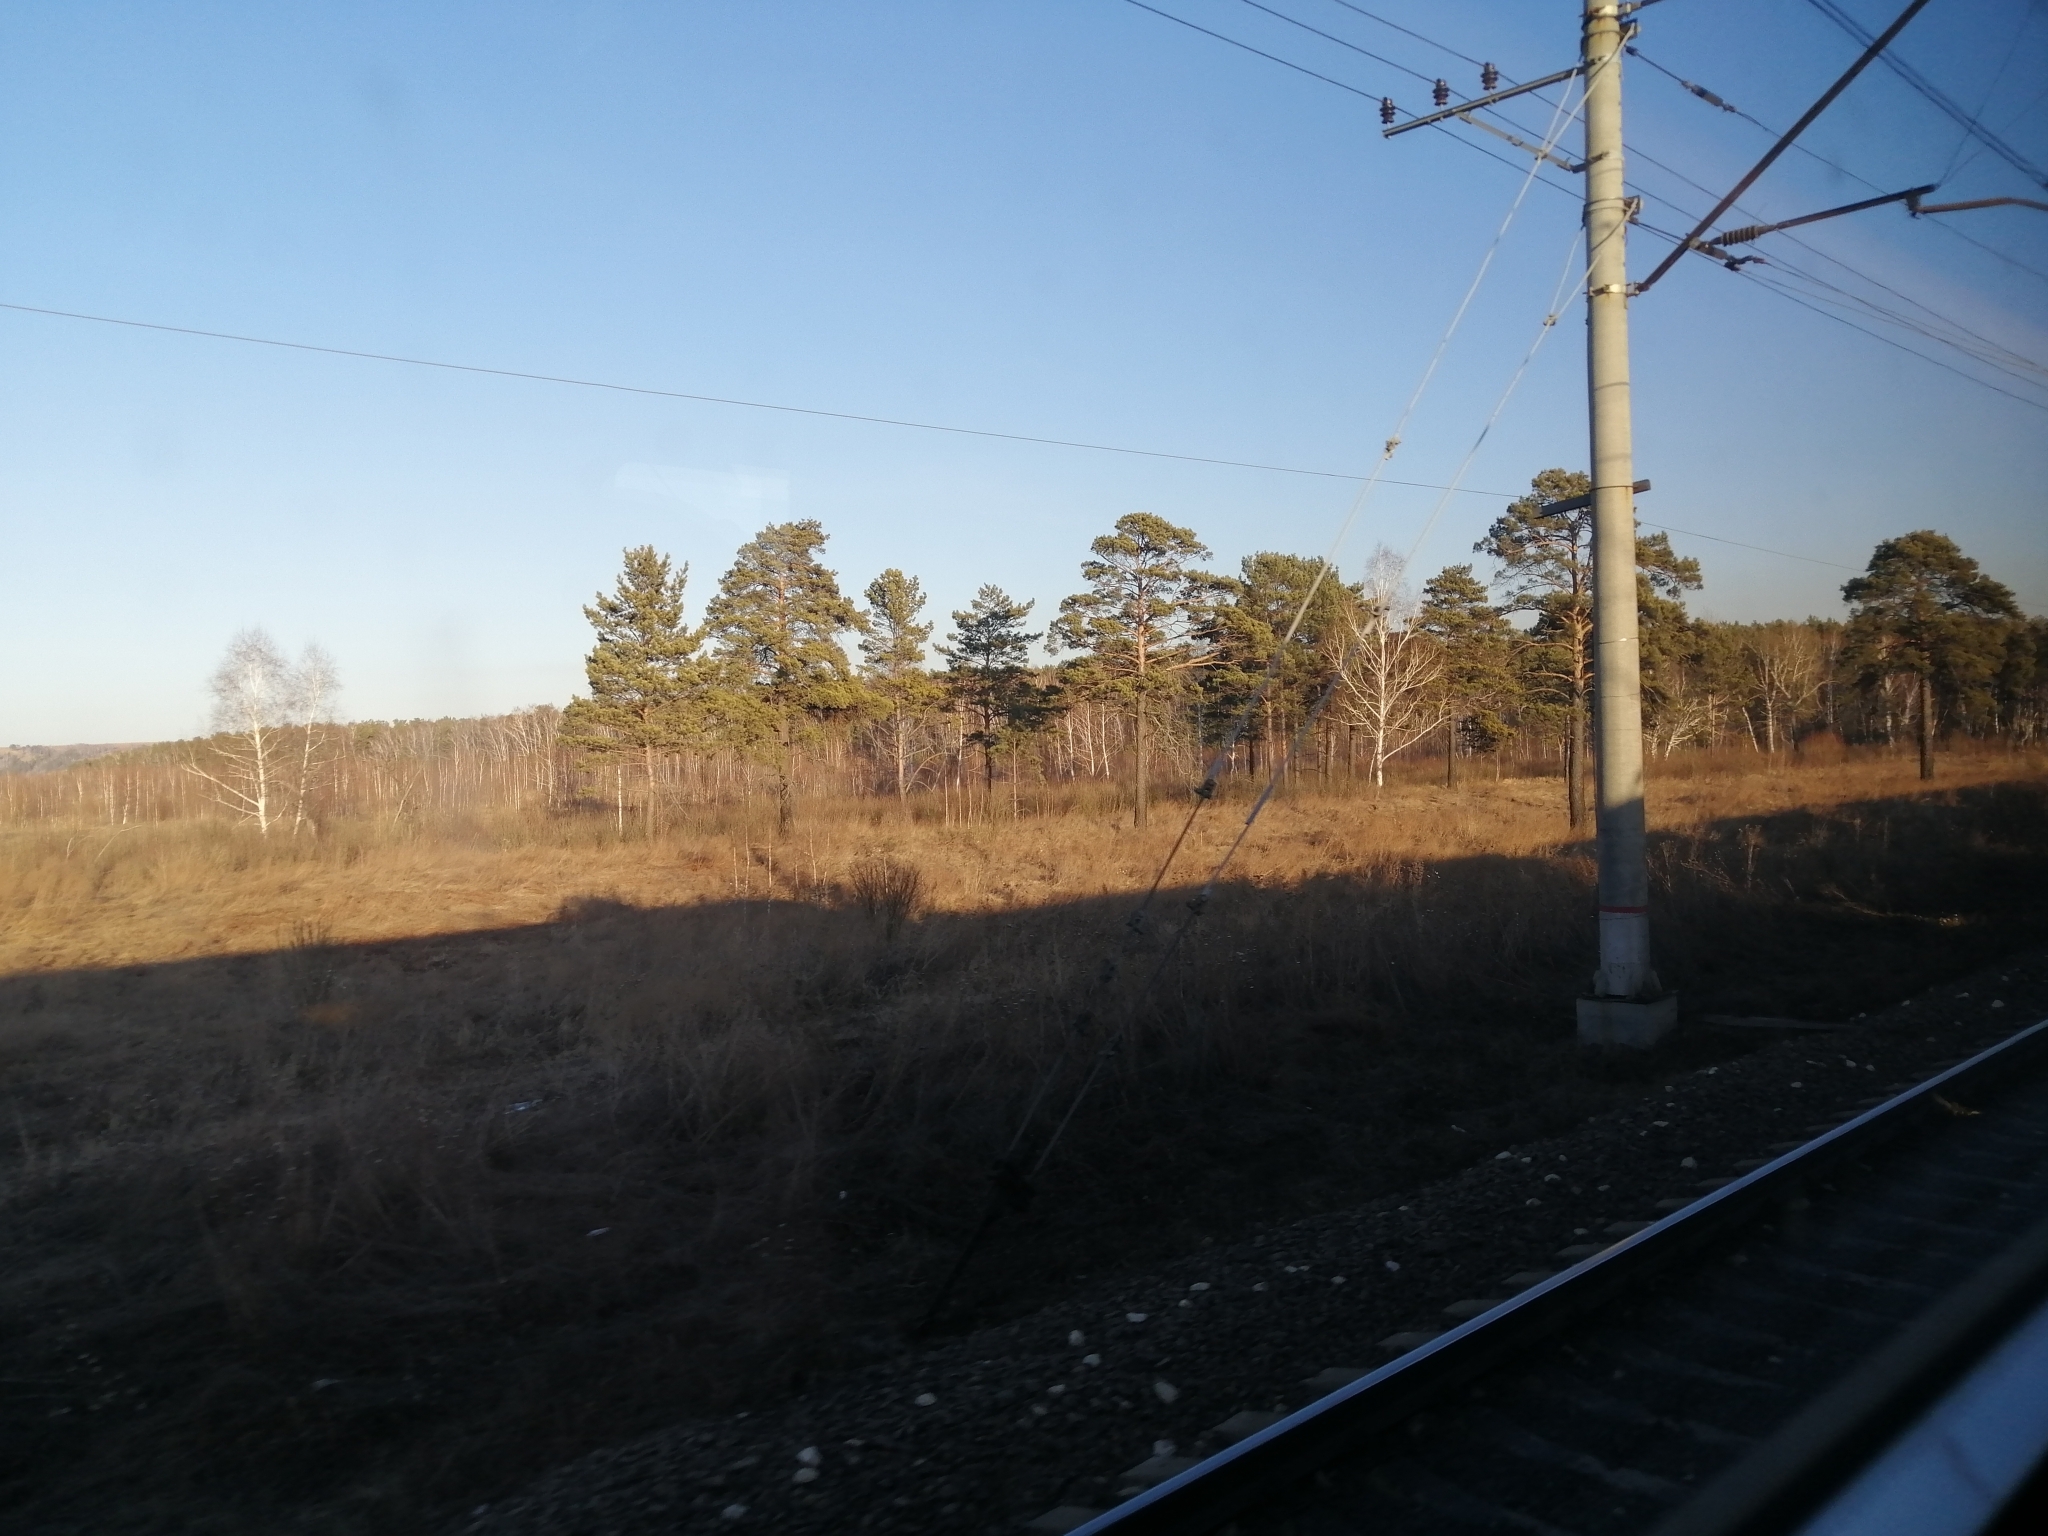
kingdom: Plantae
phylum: Tracheophyta
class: Pinopsida
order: Pinales
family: Pinaceae
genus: Pinus
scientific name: Pinus sylvestris
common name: Scots pine
